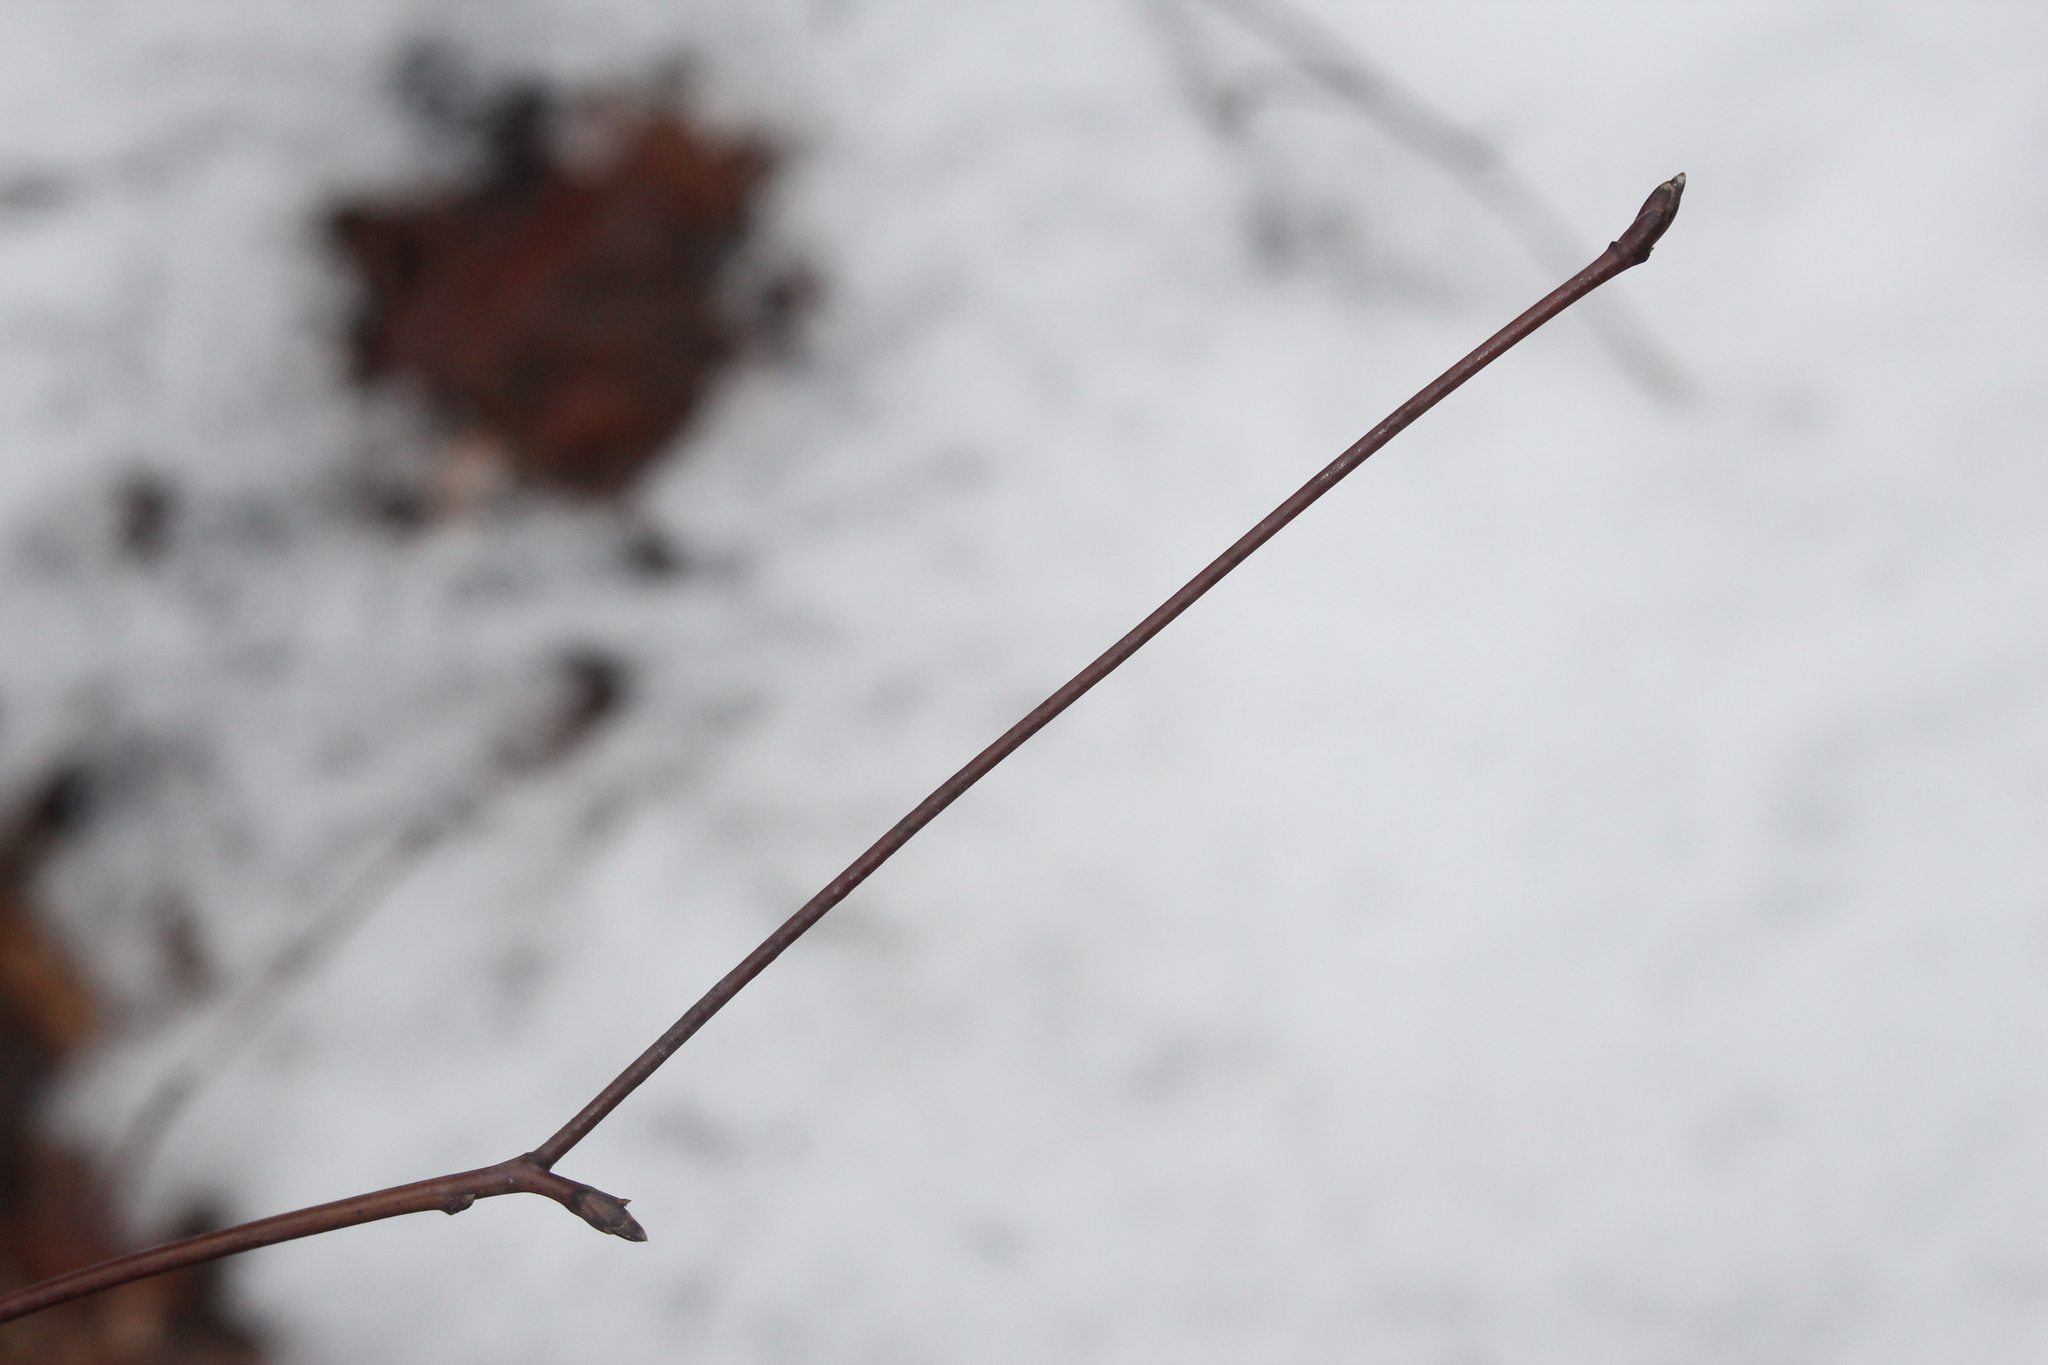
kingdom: Plantae
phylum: Tracheophyta
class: Magnoliopsida
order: Cornales
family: Cornaceae
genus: Cornus
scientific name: Cornus alternifolia
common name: Pagoda dogwood
